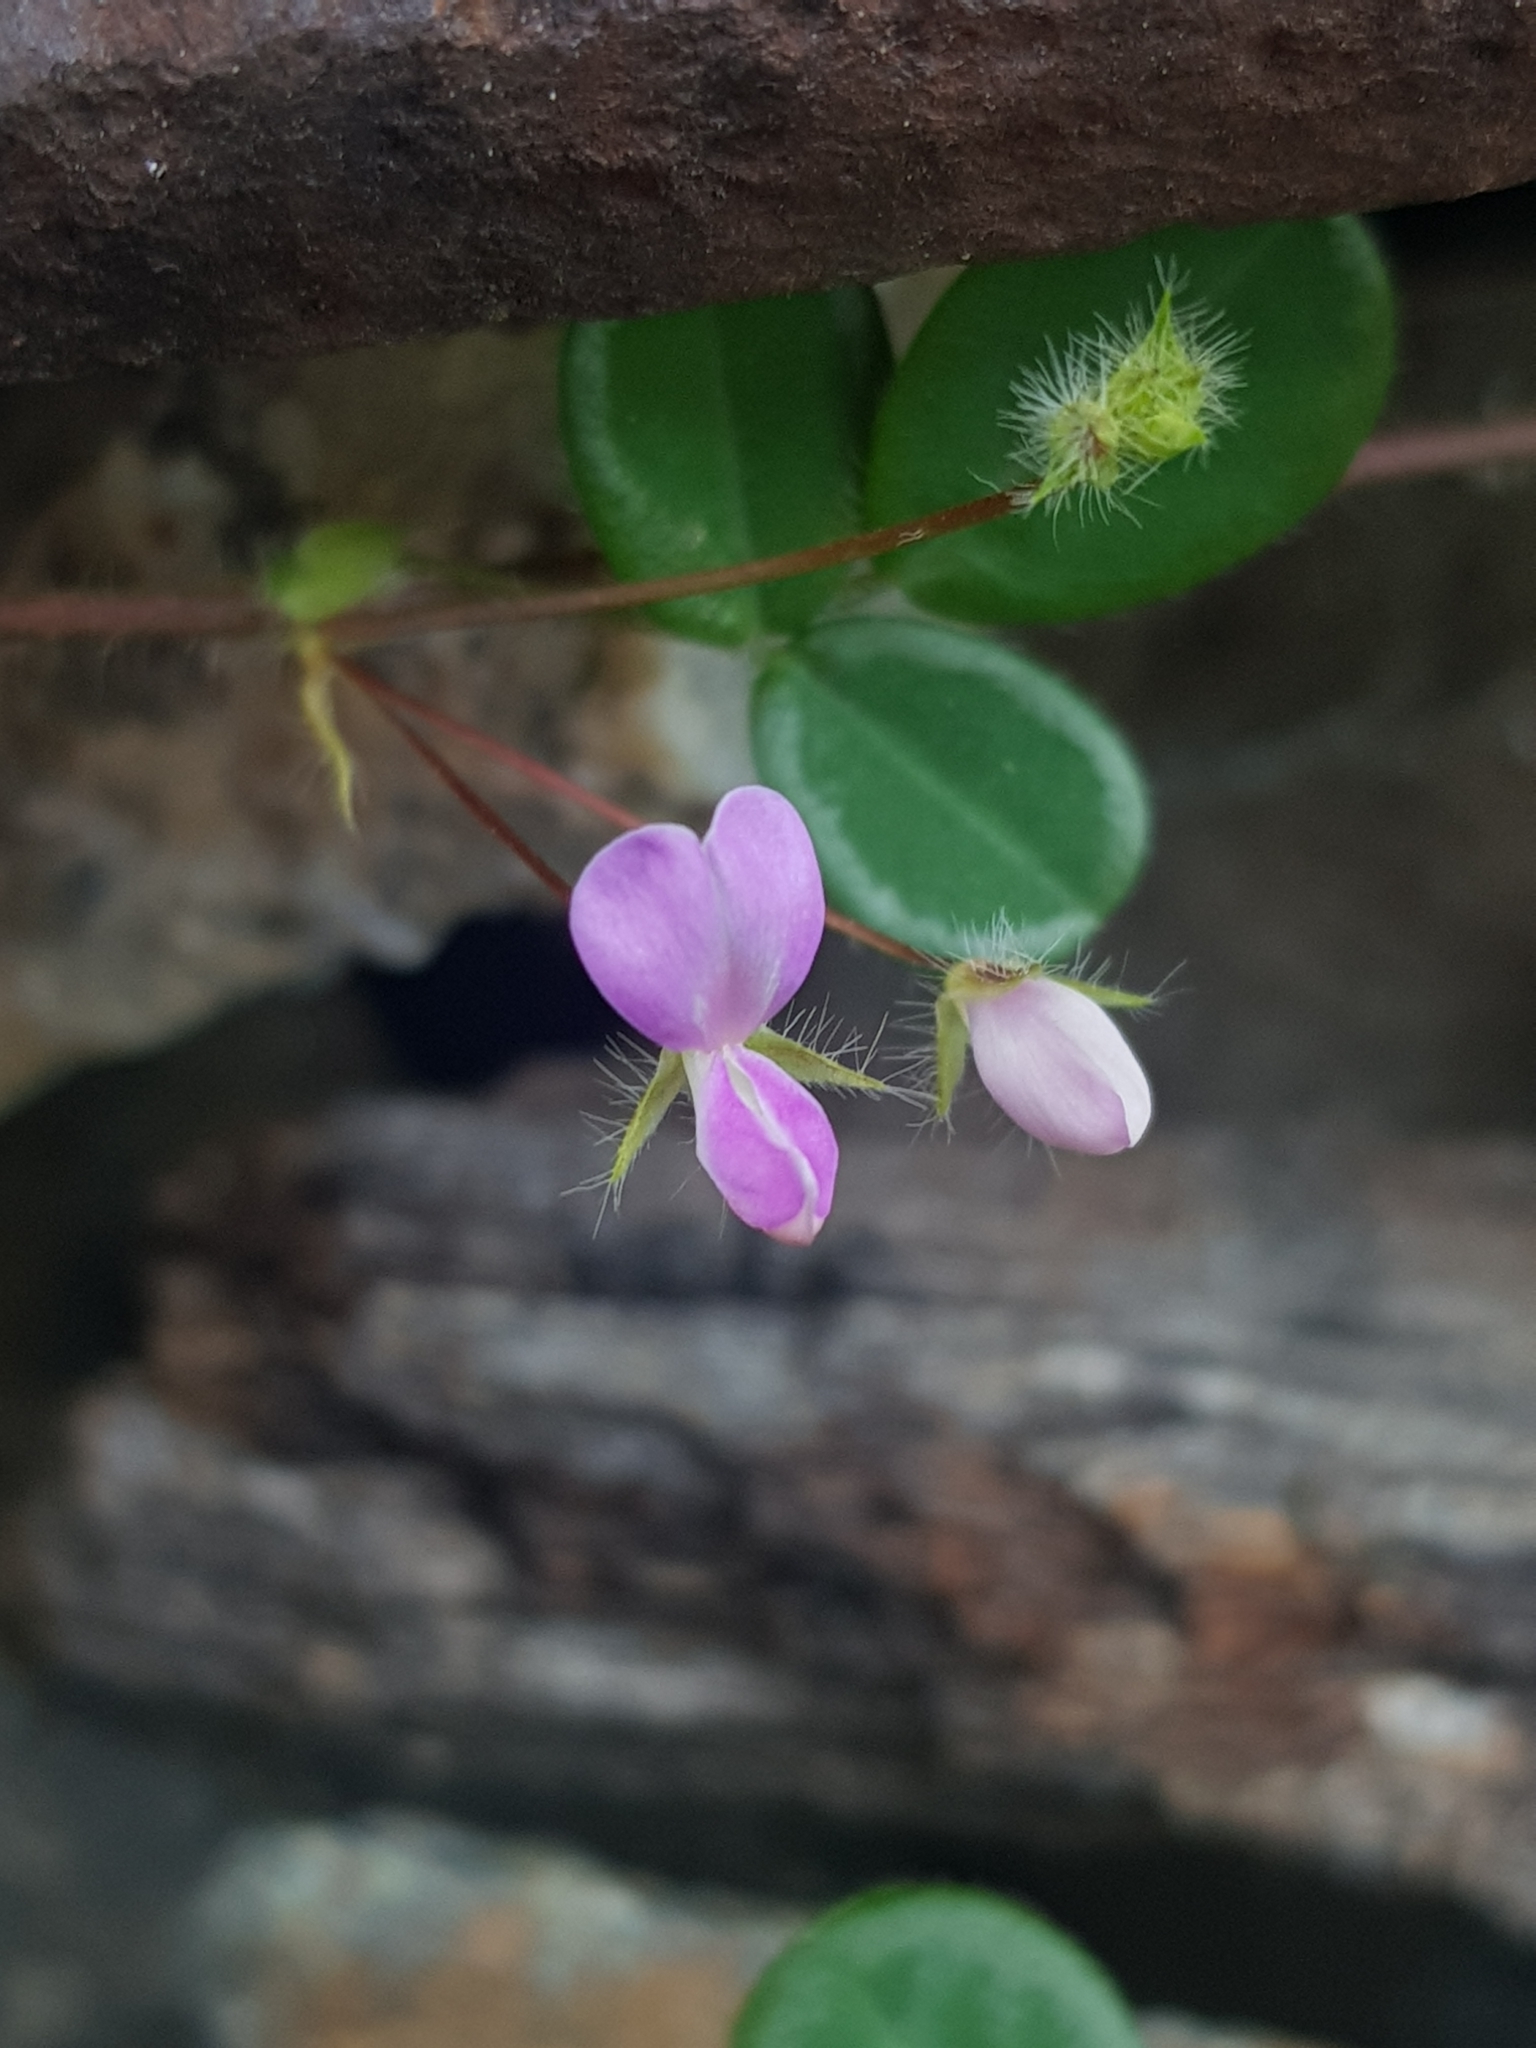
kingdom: Plantae
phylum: Tracheophyta
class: Magnoliopsida
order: Fabales
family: Fabaceae
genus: Grona
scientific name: Grona heterophylla
